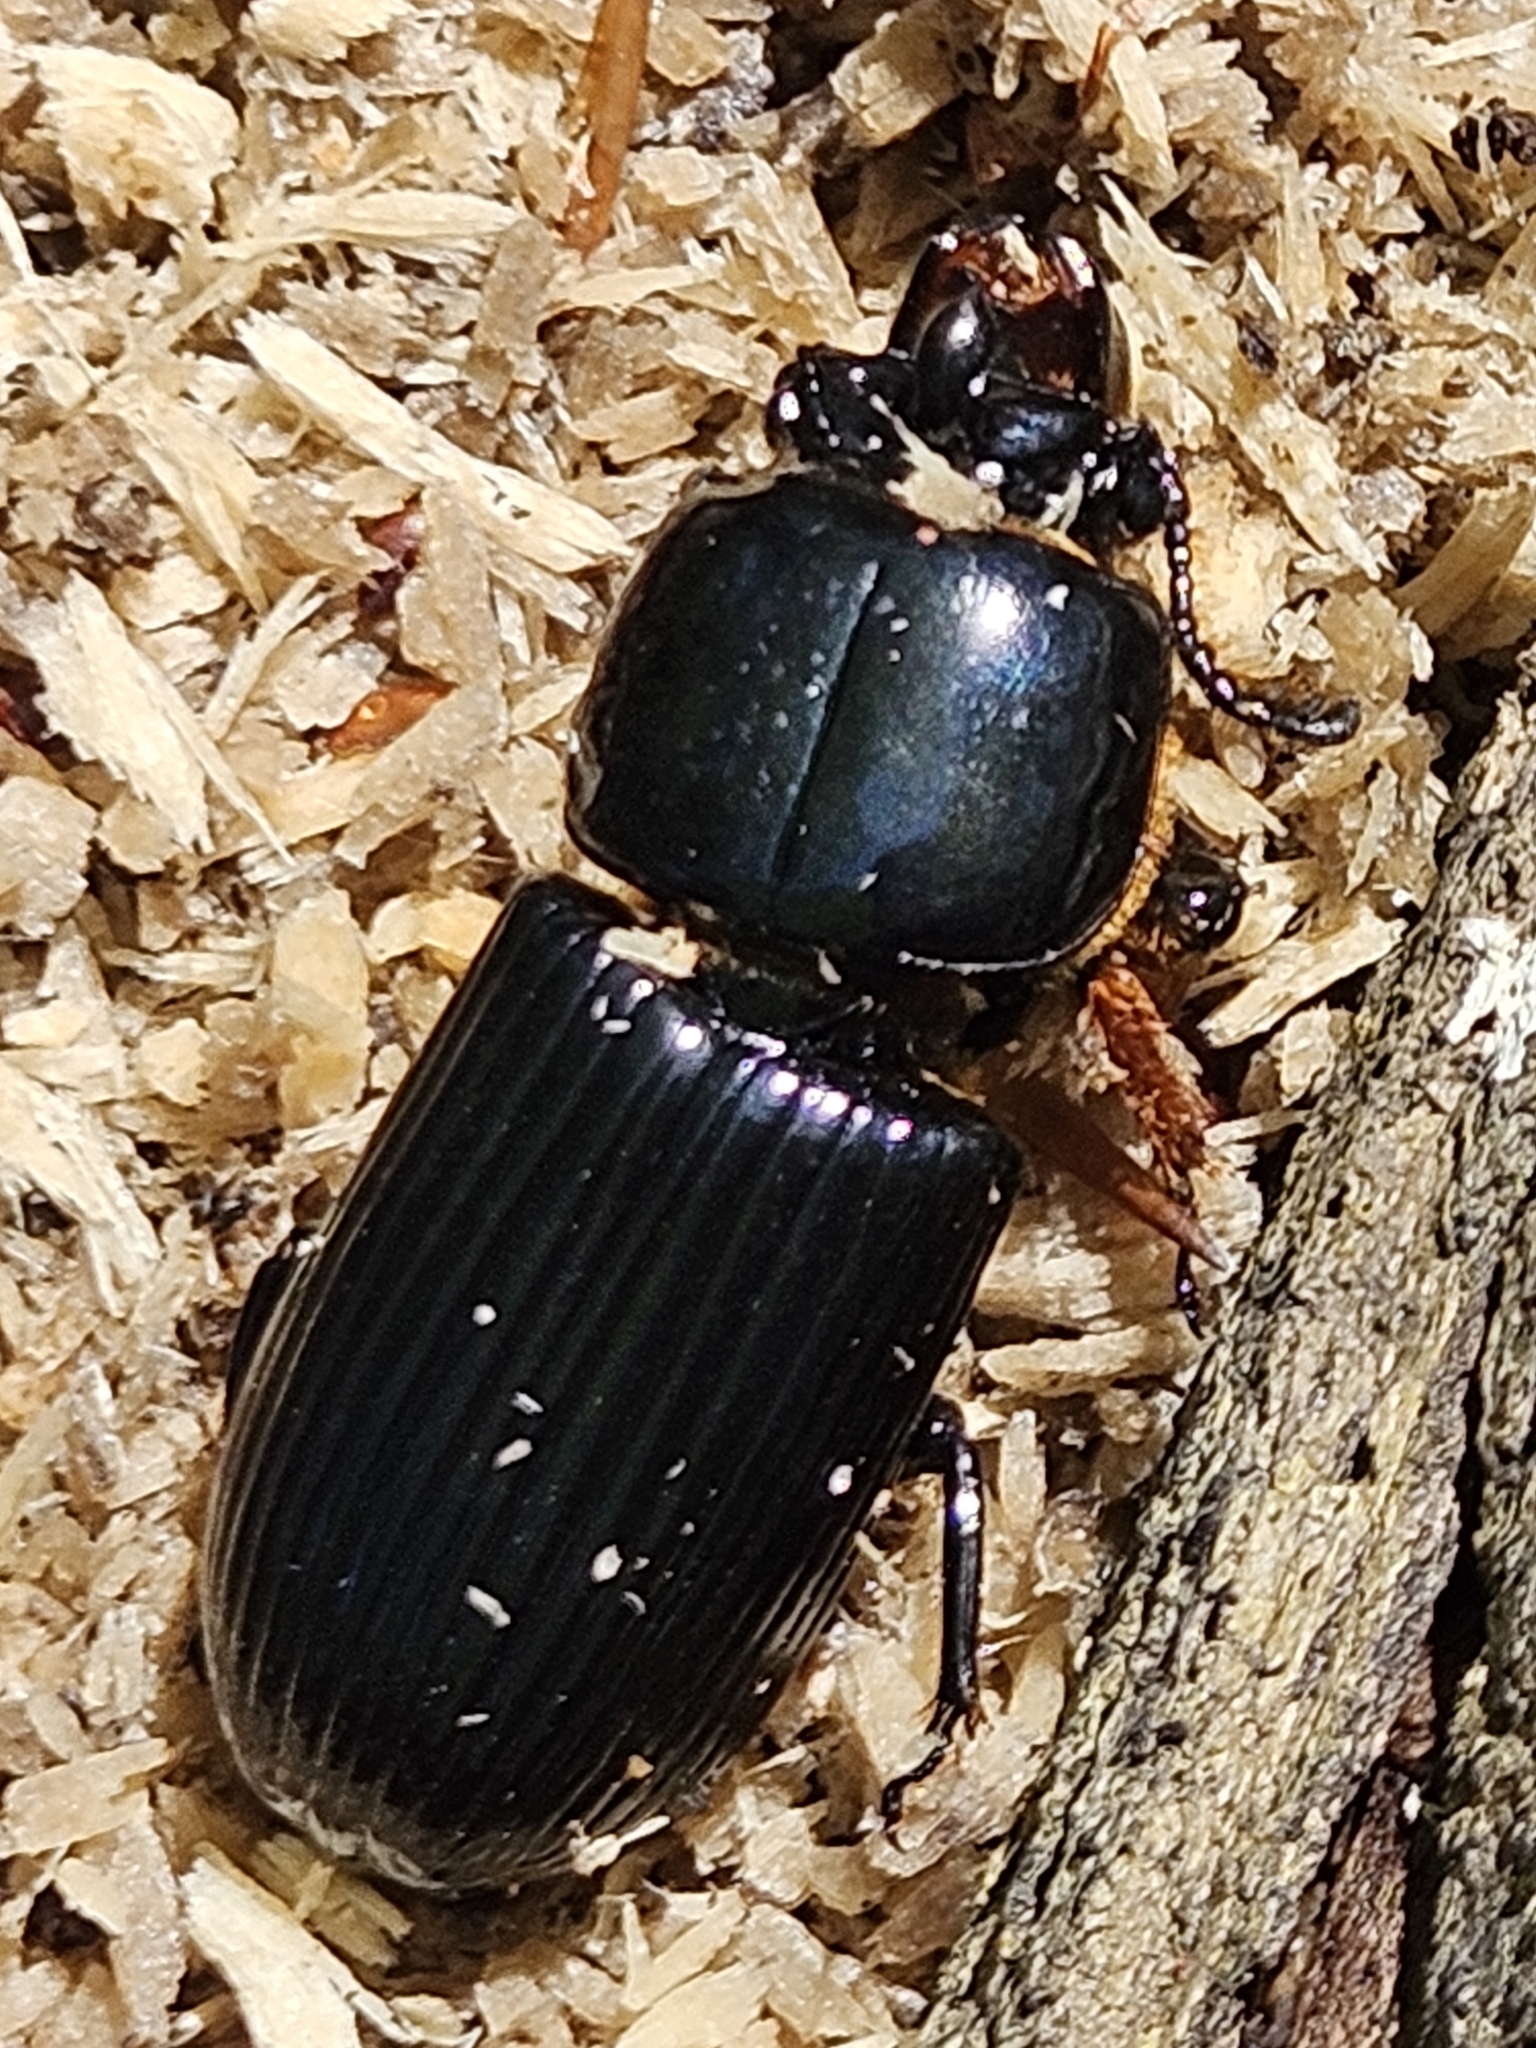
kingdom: Animalia
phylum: Arthropoda
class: Insecta
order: Coleoptera
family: Passalidae
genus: Odontotaenius
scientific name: Odontotaenius disjunctus
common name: Patent leather beetle
